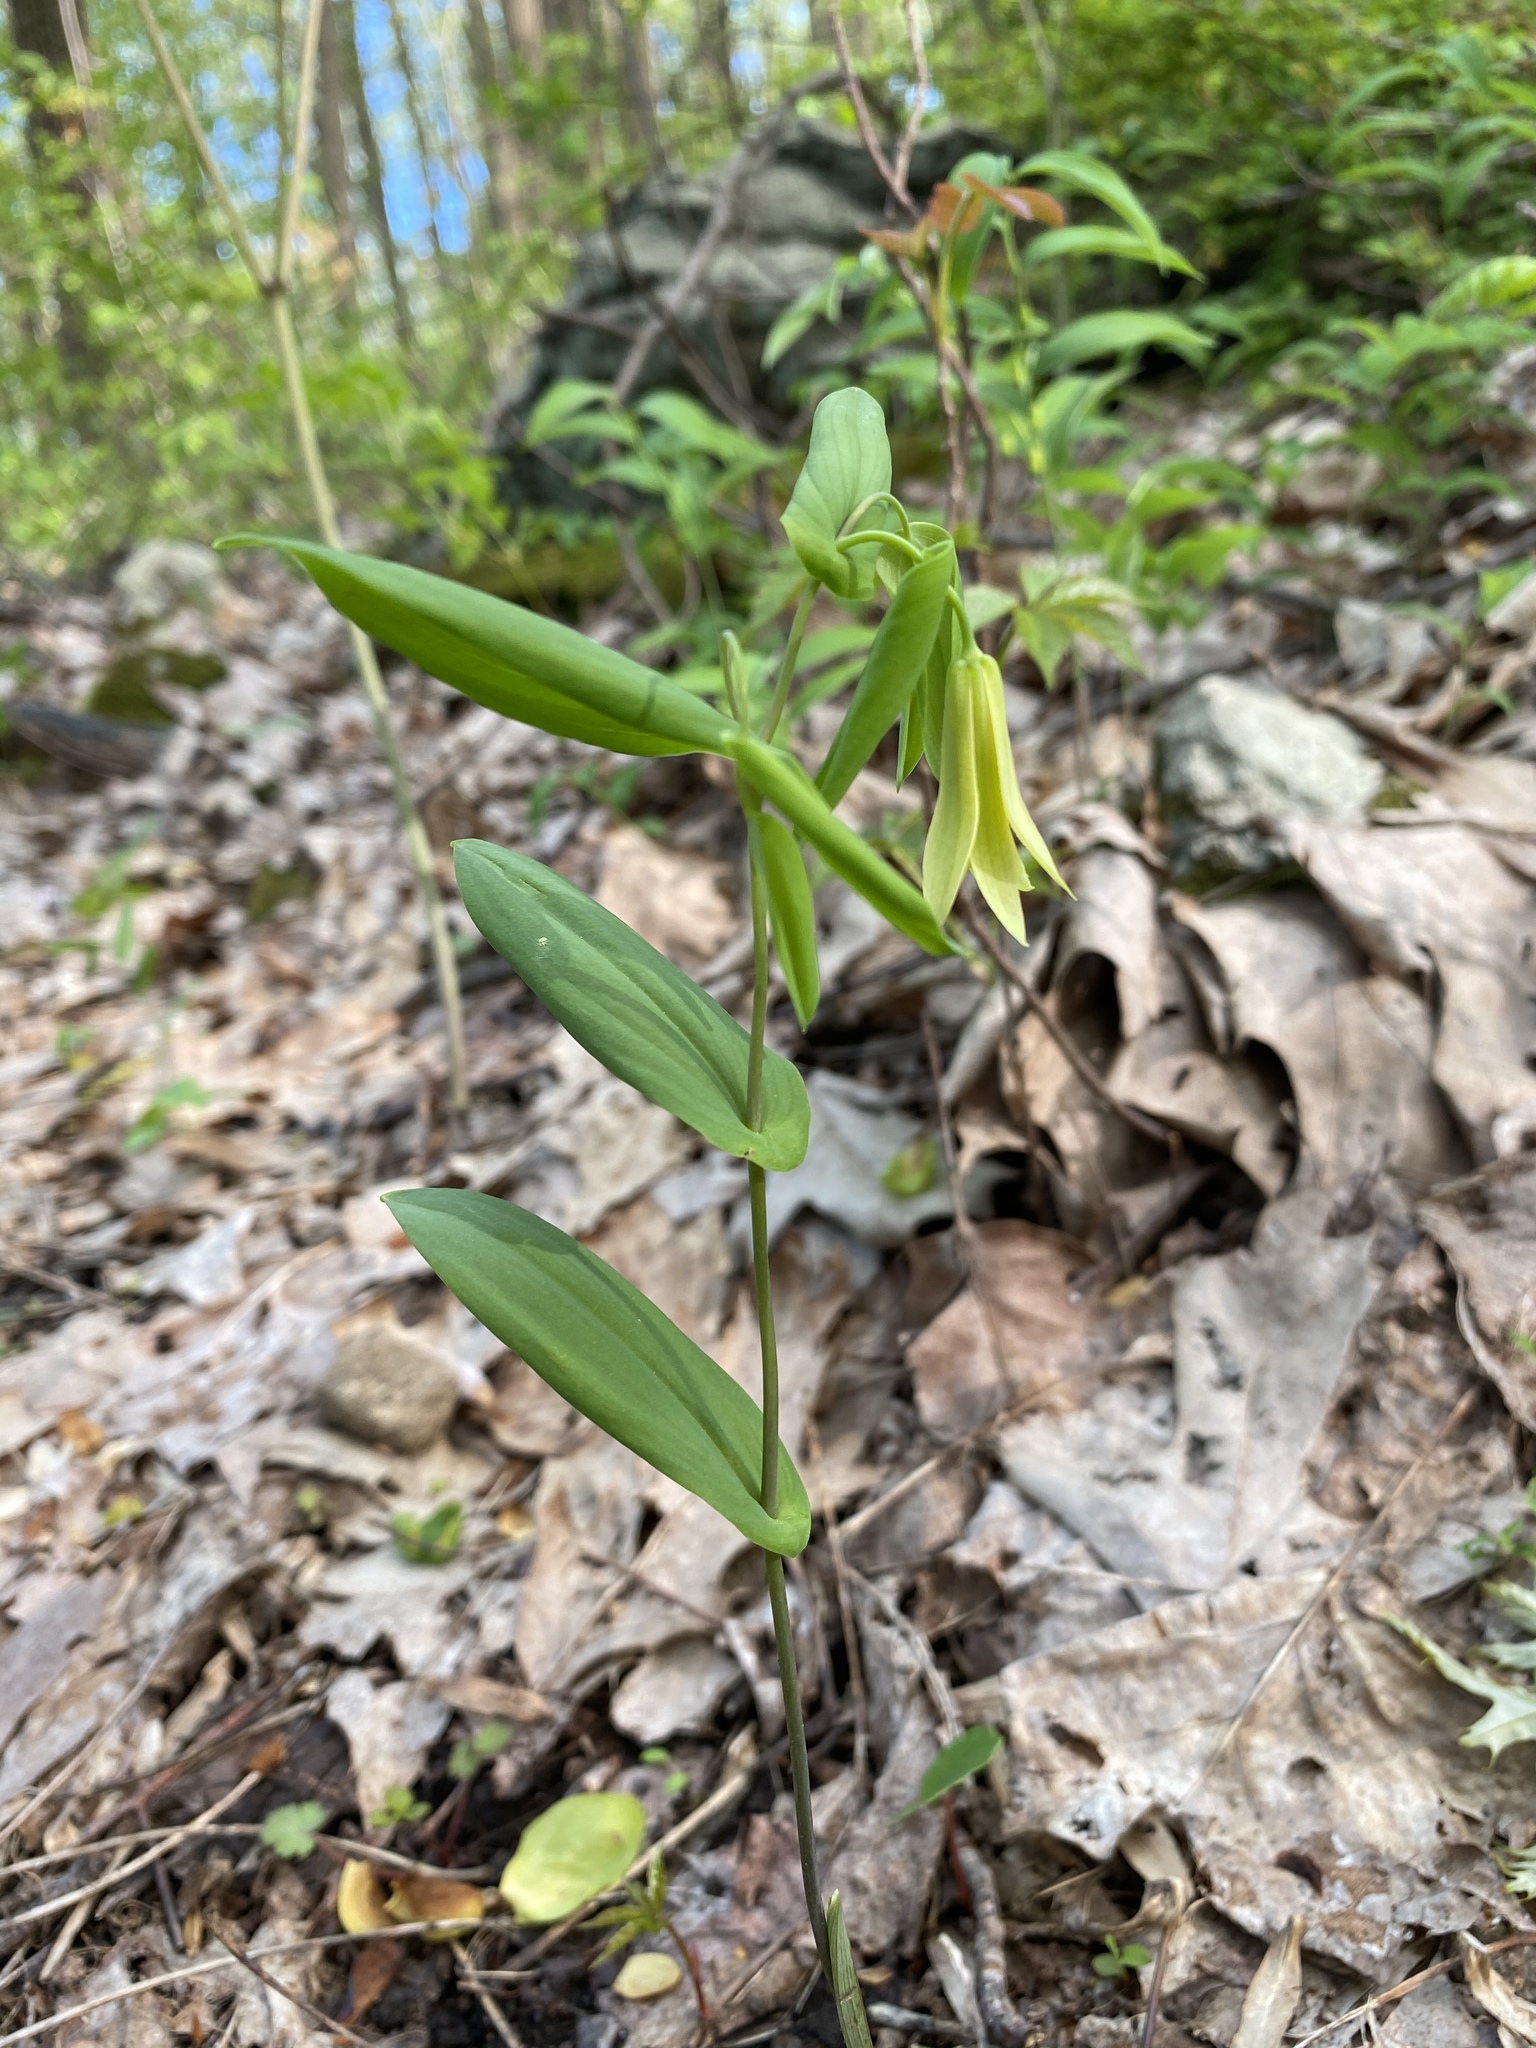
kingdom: Plantae
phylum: Tracheophyta
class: Liliopsida
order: Liliales
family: Colchicaceae
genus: Uvularia
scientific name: Uvularia perfoliata
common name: Perfoliate bellwort
